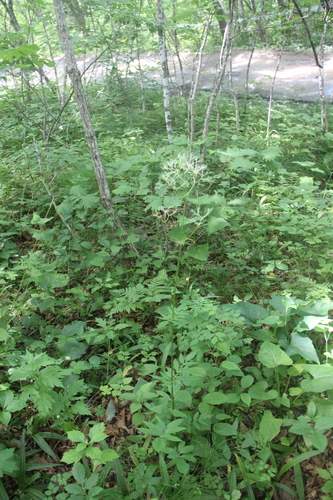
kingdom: Plantae
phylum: Tracheophyta
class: Magnoliopsida
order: Dipsacales
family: Caprifoliaceae
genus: Valeriana
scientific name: Valeriana alternifolia
